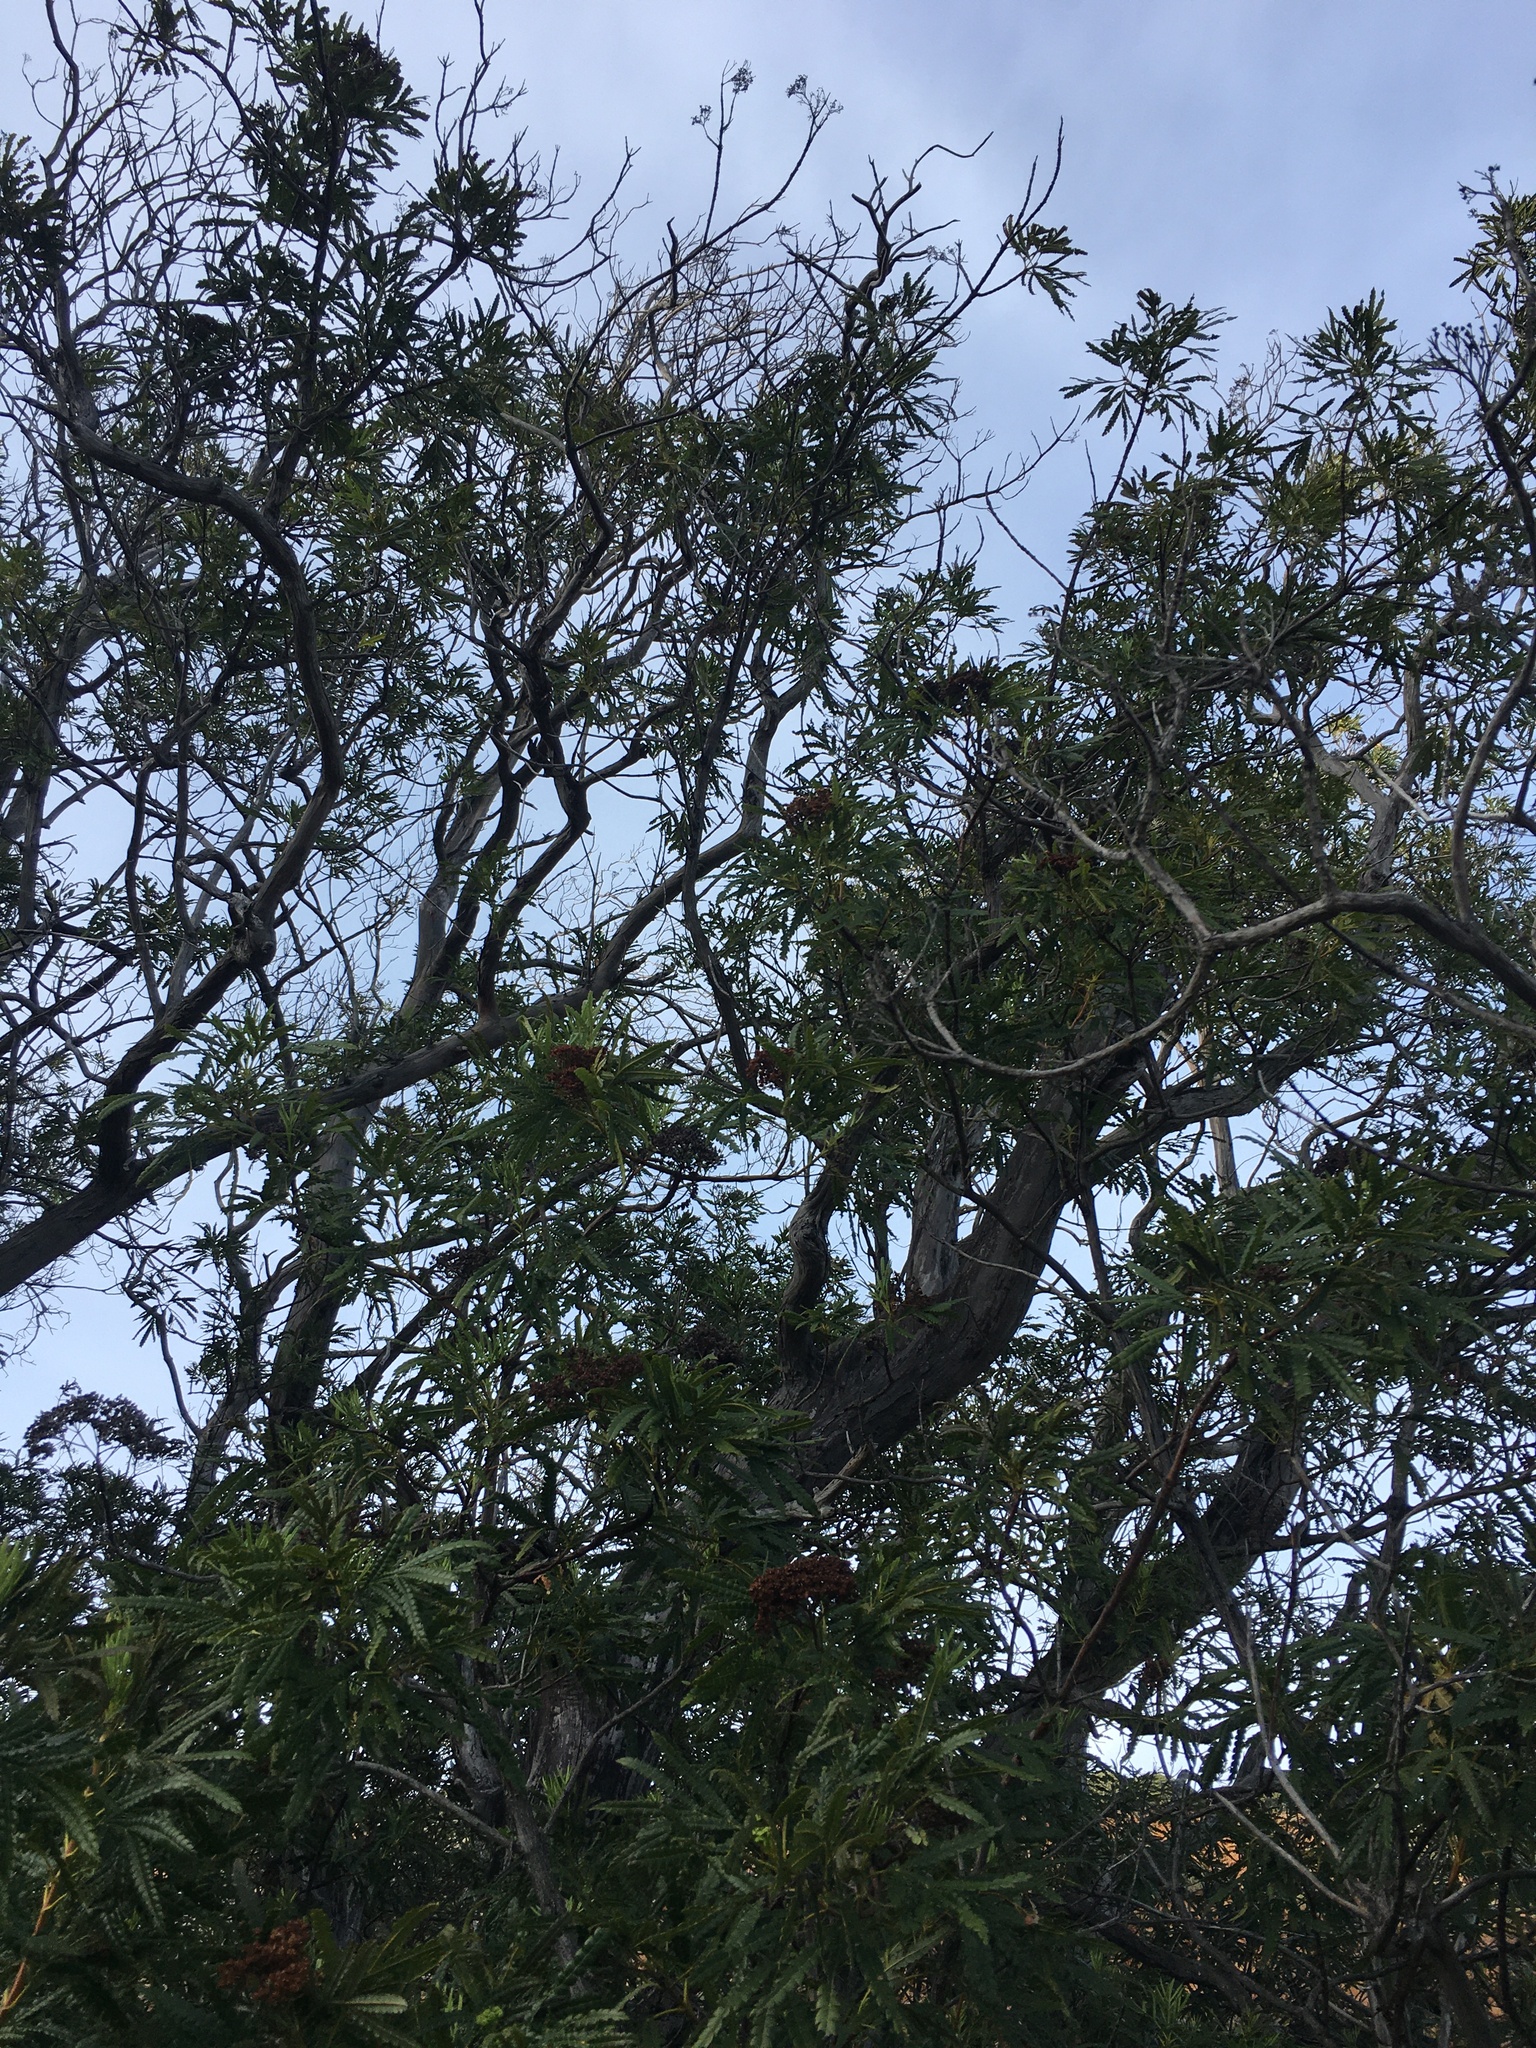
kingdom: Plantae
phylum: Tracheophyta
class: Magnoliopsida
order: Rosales
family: Rosaceae
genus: Lyonothamnus
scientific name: Lyonothamnus floribundus
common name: Catalina ironwood
